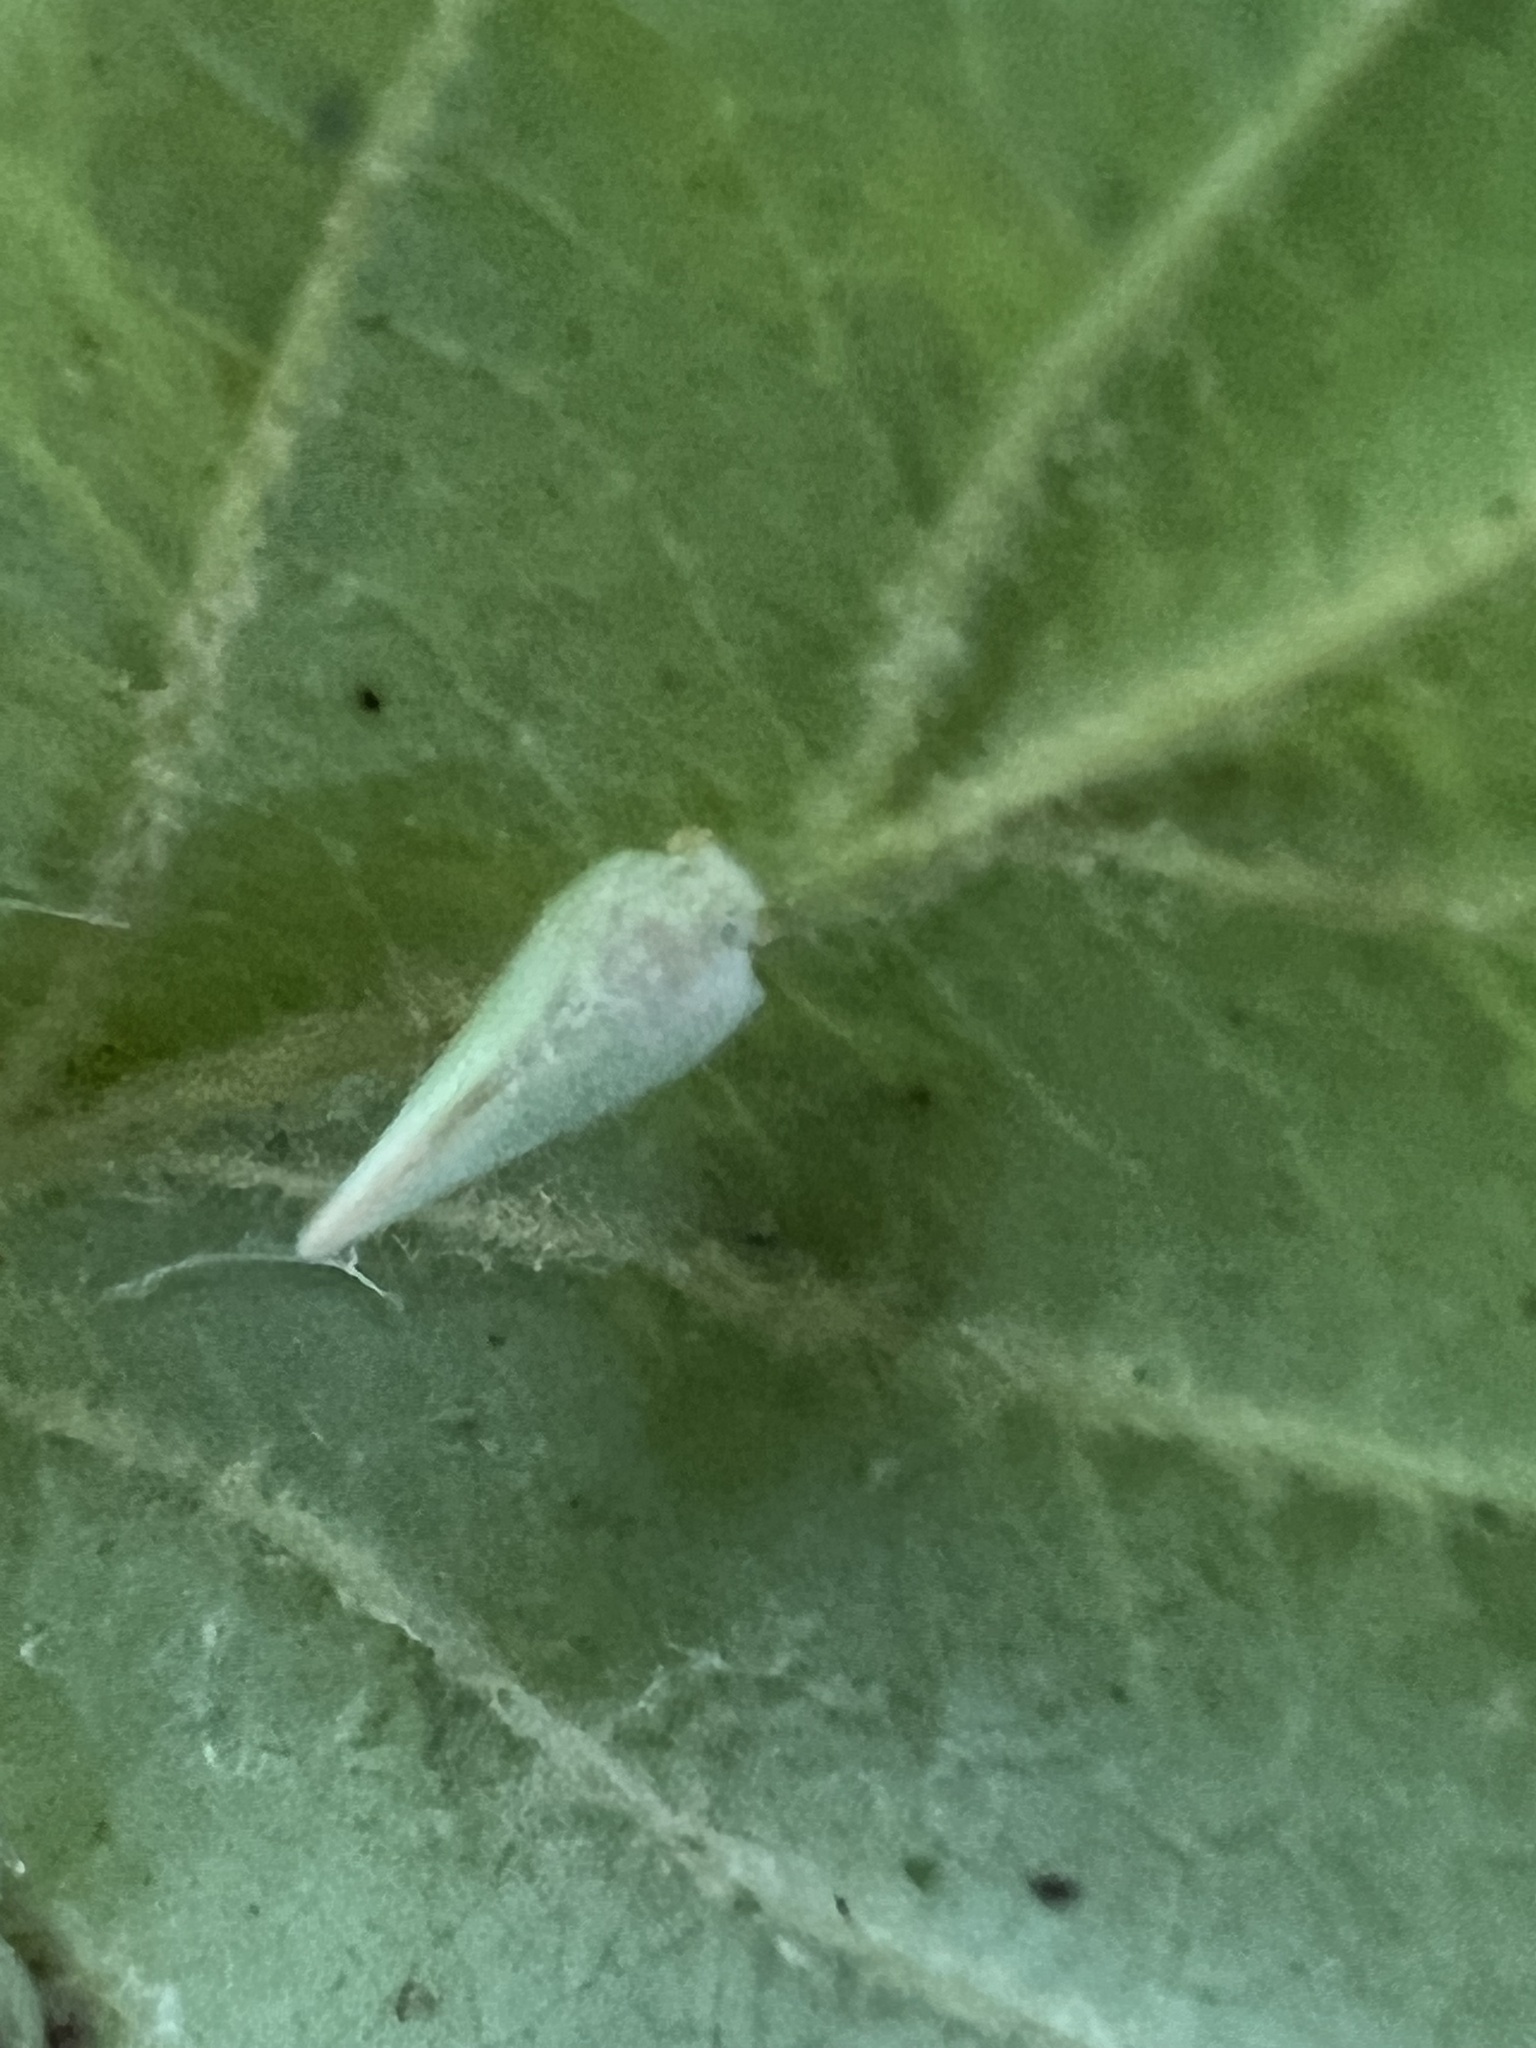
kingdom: Animalia
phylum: Arthropoda
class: Insecta
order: Hemiptera
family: Flatidae
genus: Ormenoides
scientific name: Ormenoides venusta
